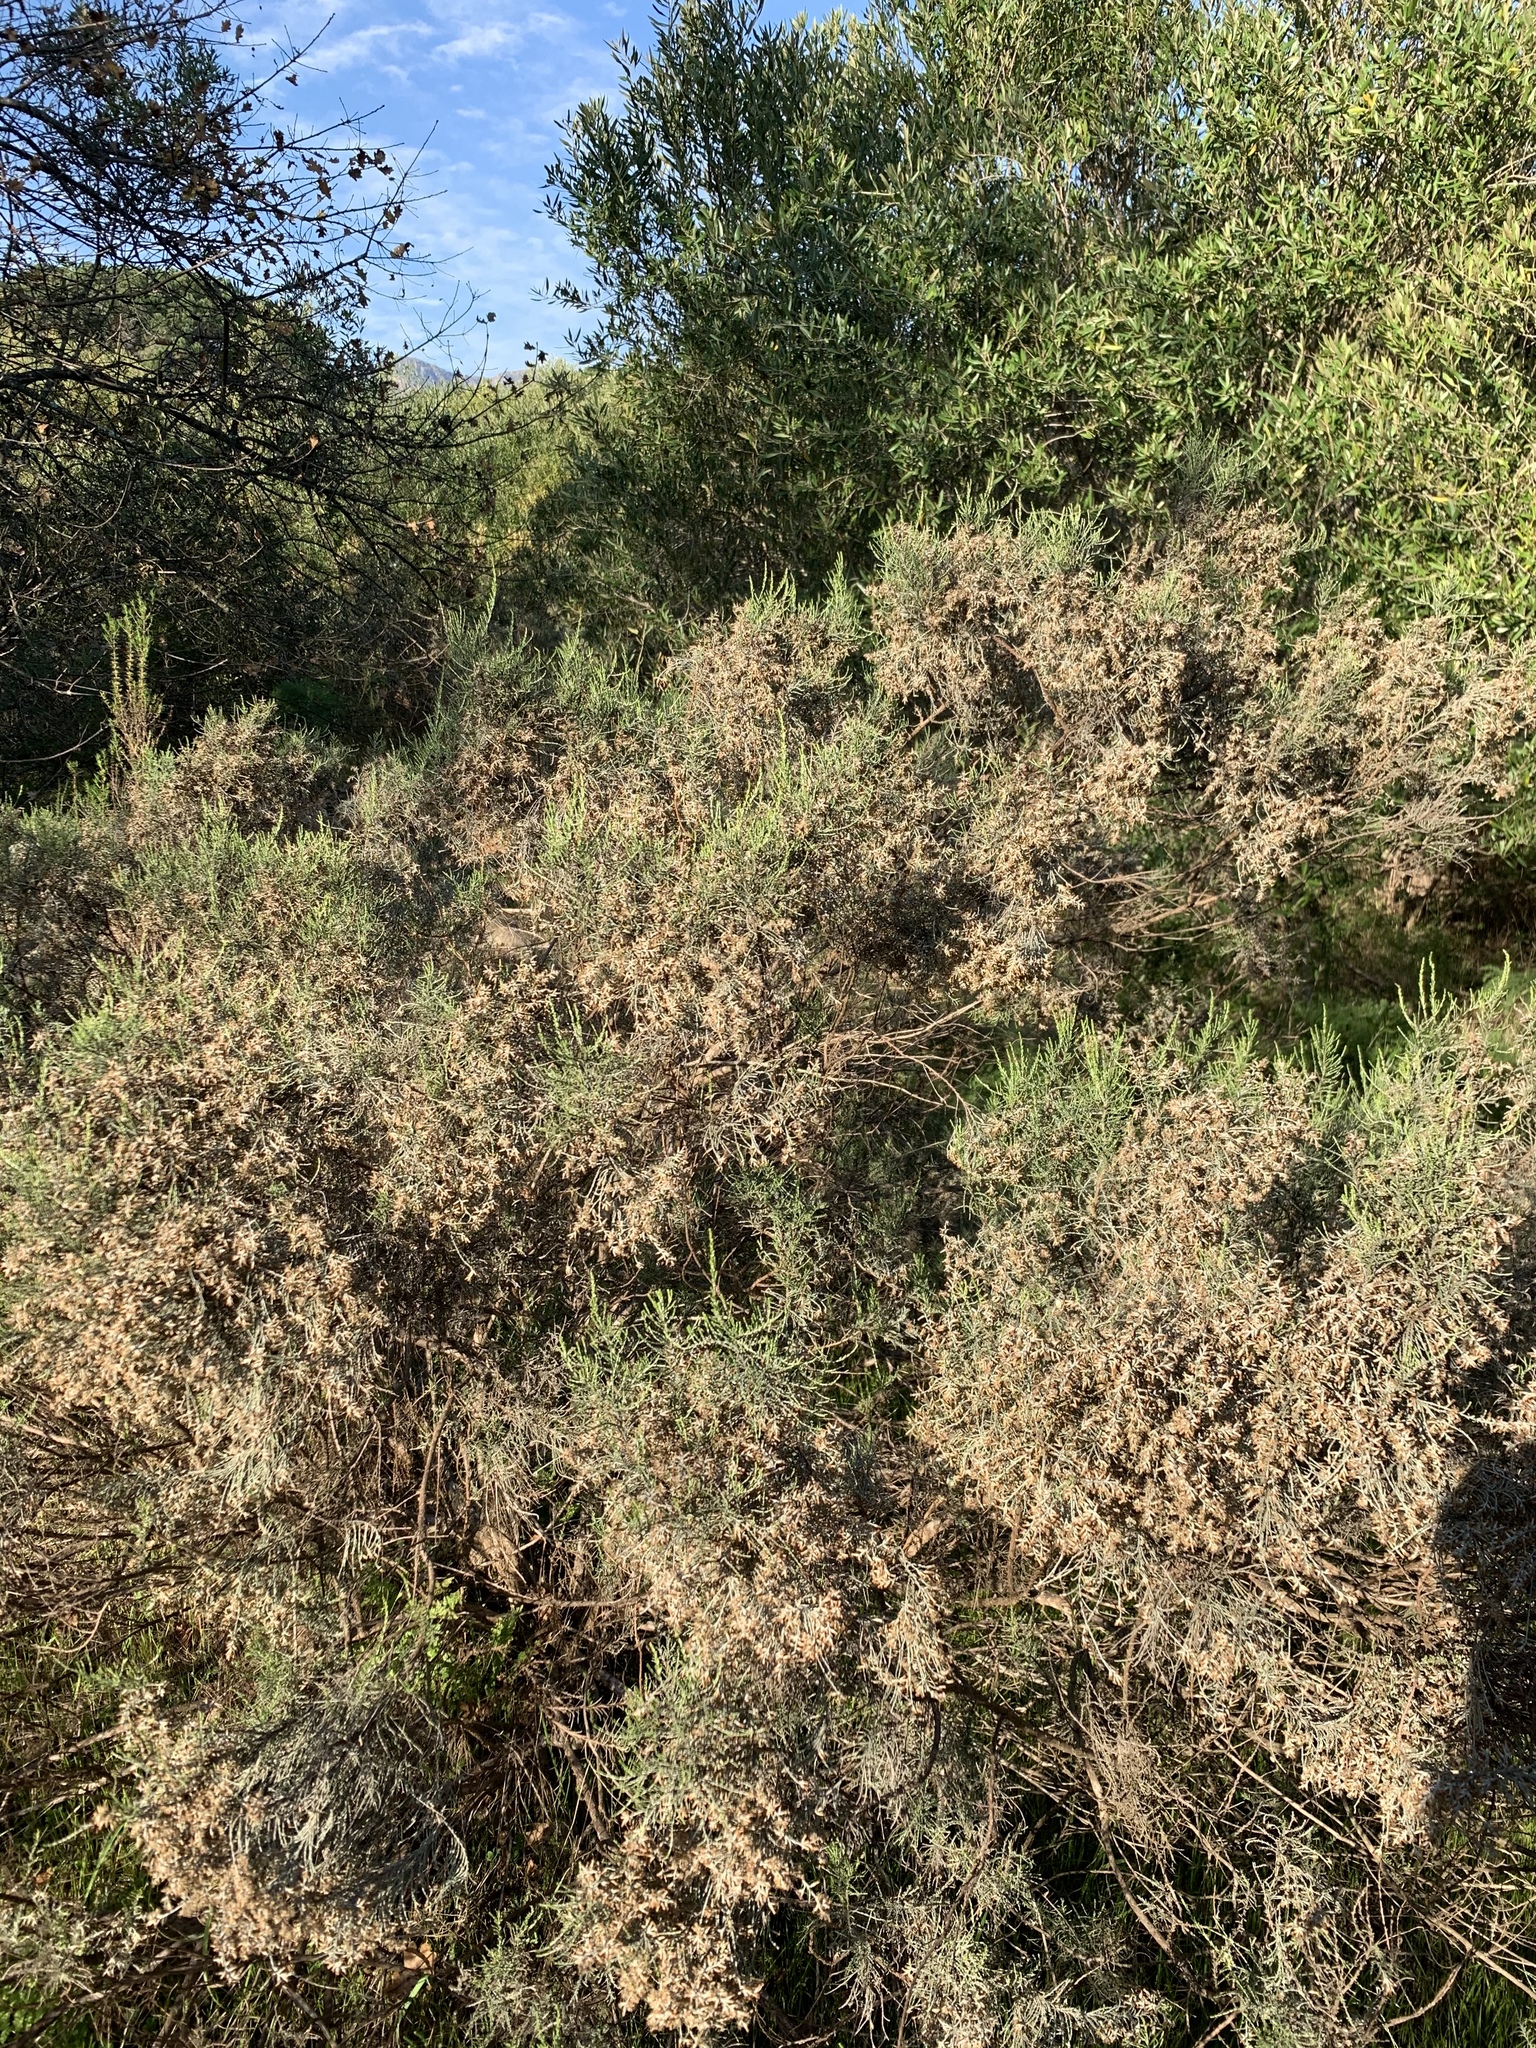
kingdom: Plantae
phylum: Tracheophyta
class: Magnoliopsida
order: Asterales
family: Asteraceae
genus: Dicerothamnus
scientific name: Dicerothamnus rhinocerotis
